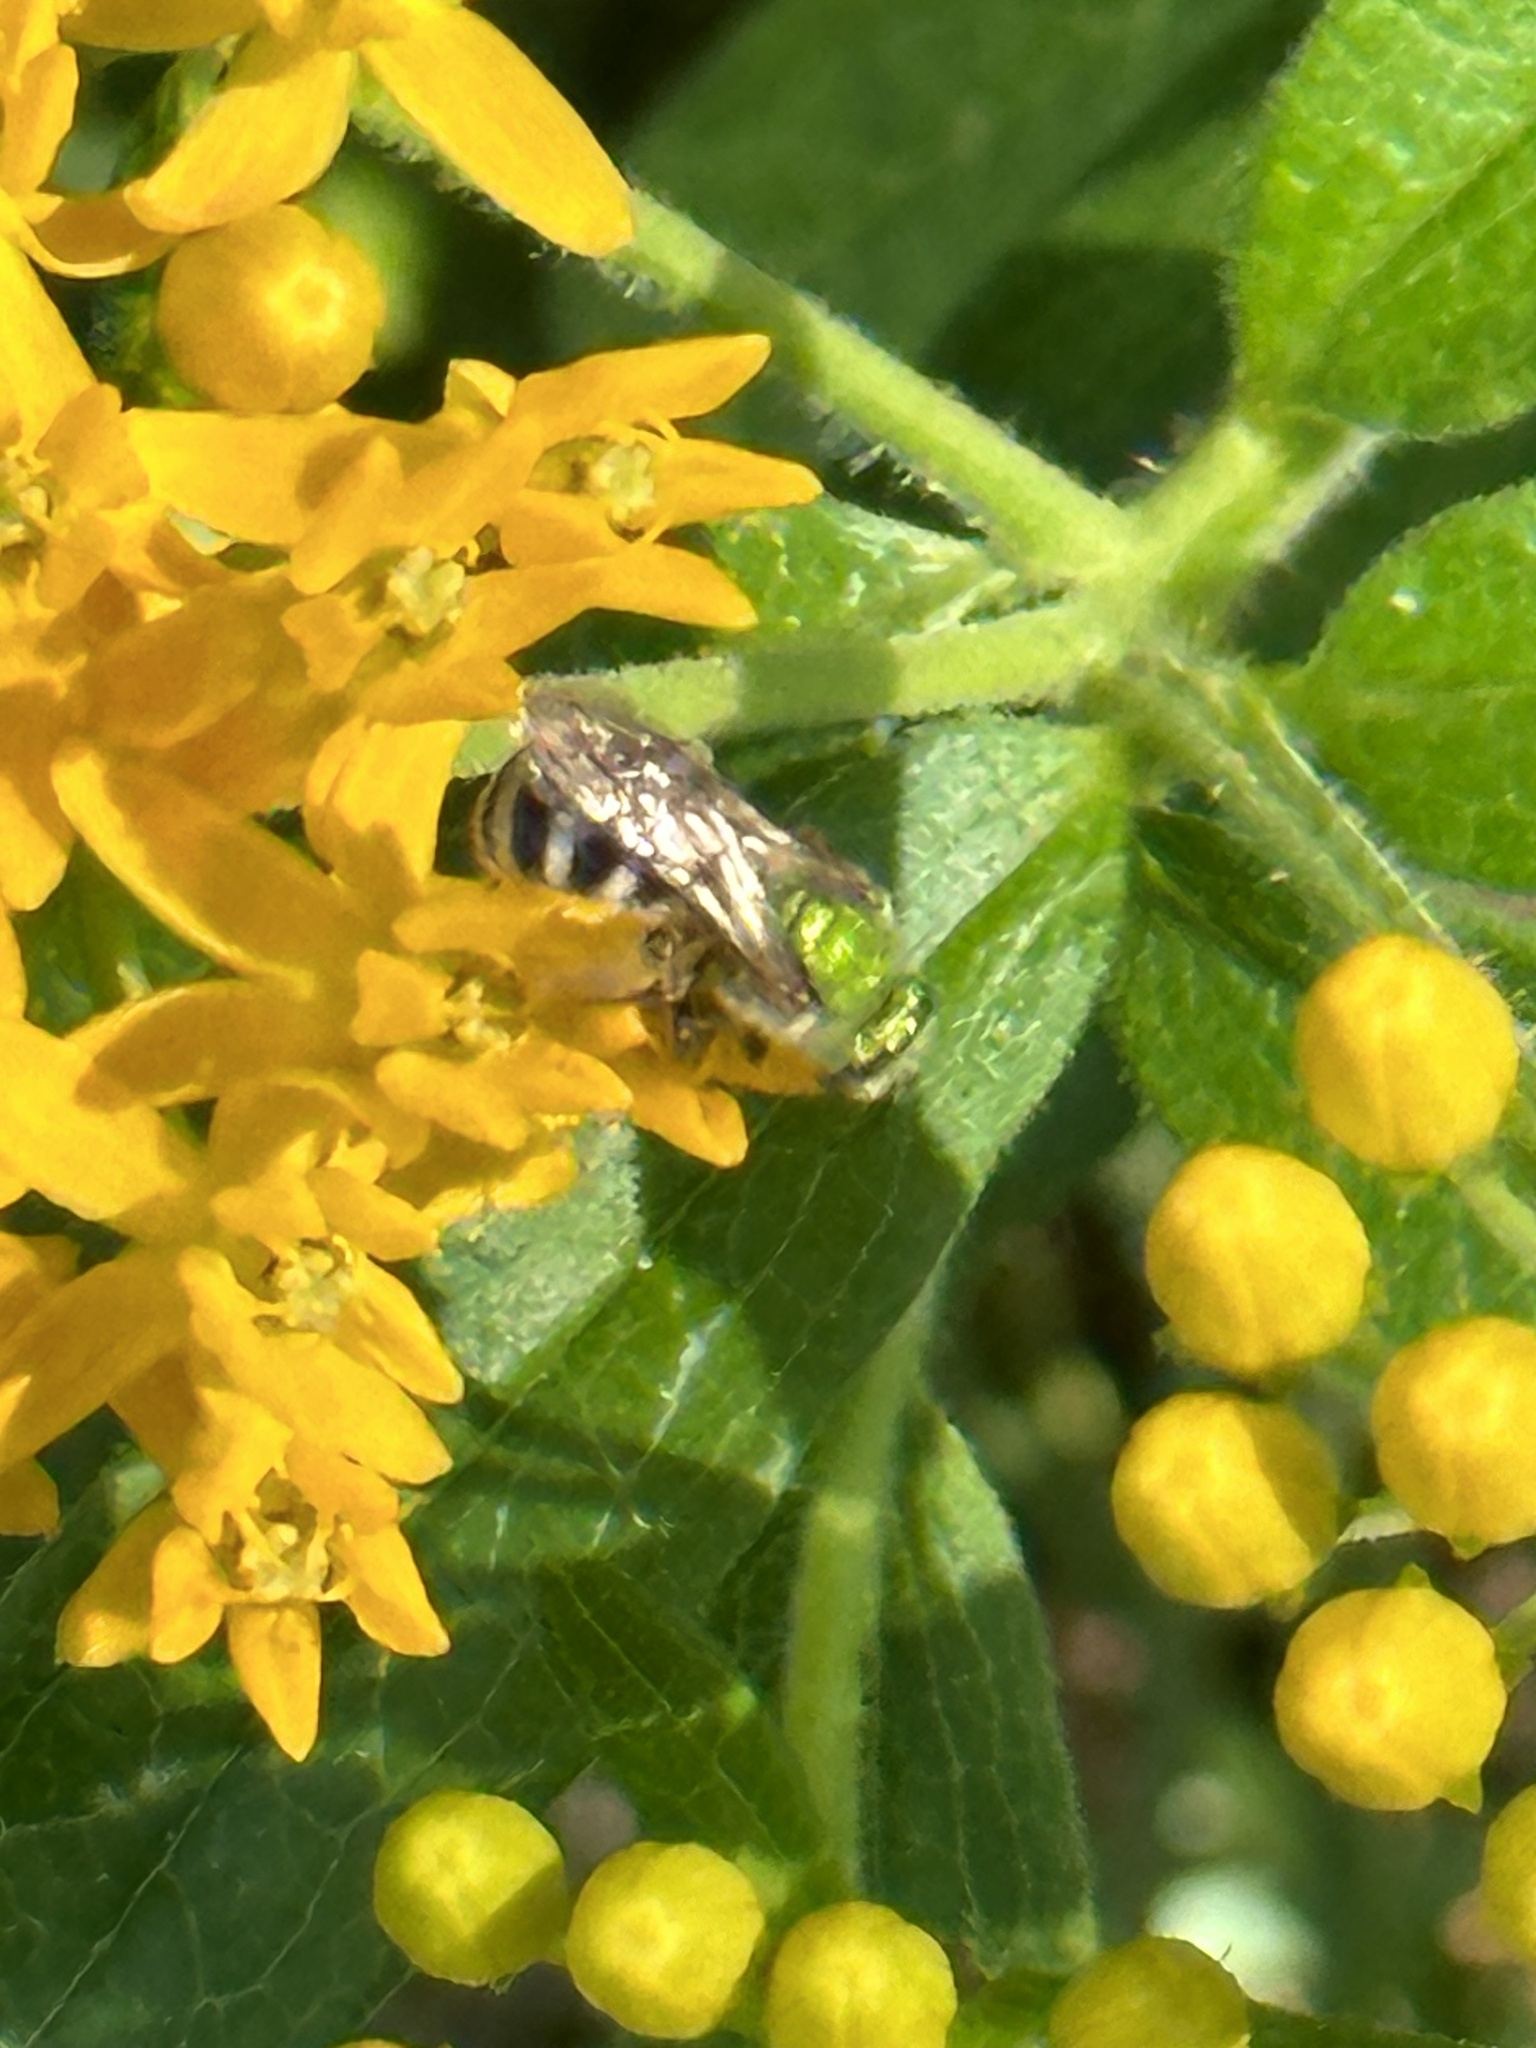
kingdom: Animalia
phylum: Arthropoda
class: Insecta
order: Hymenoptera
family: Halictidae
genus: Agapostemon
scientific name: Agapostemon virescens
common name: Bicolored striped sweat bee
